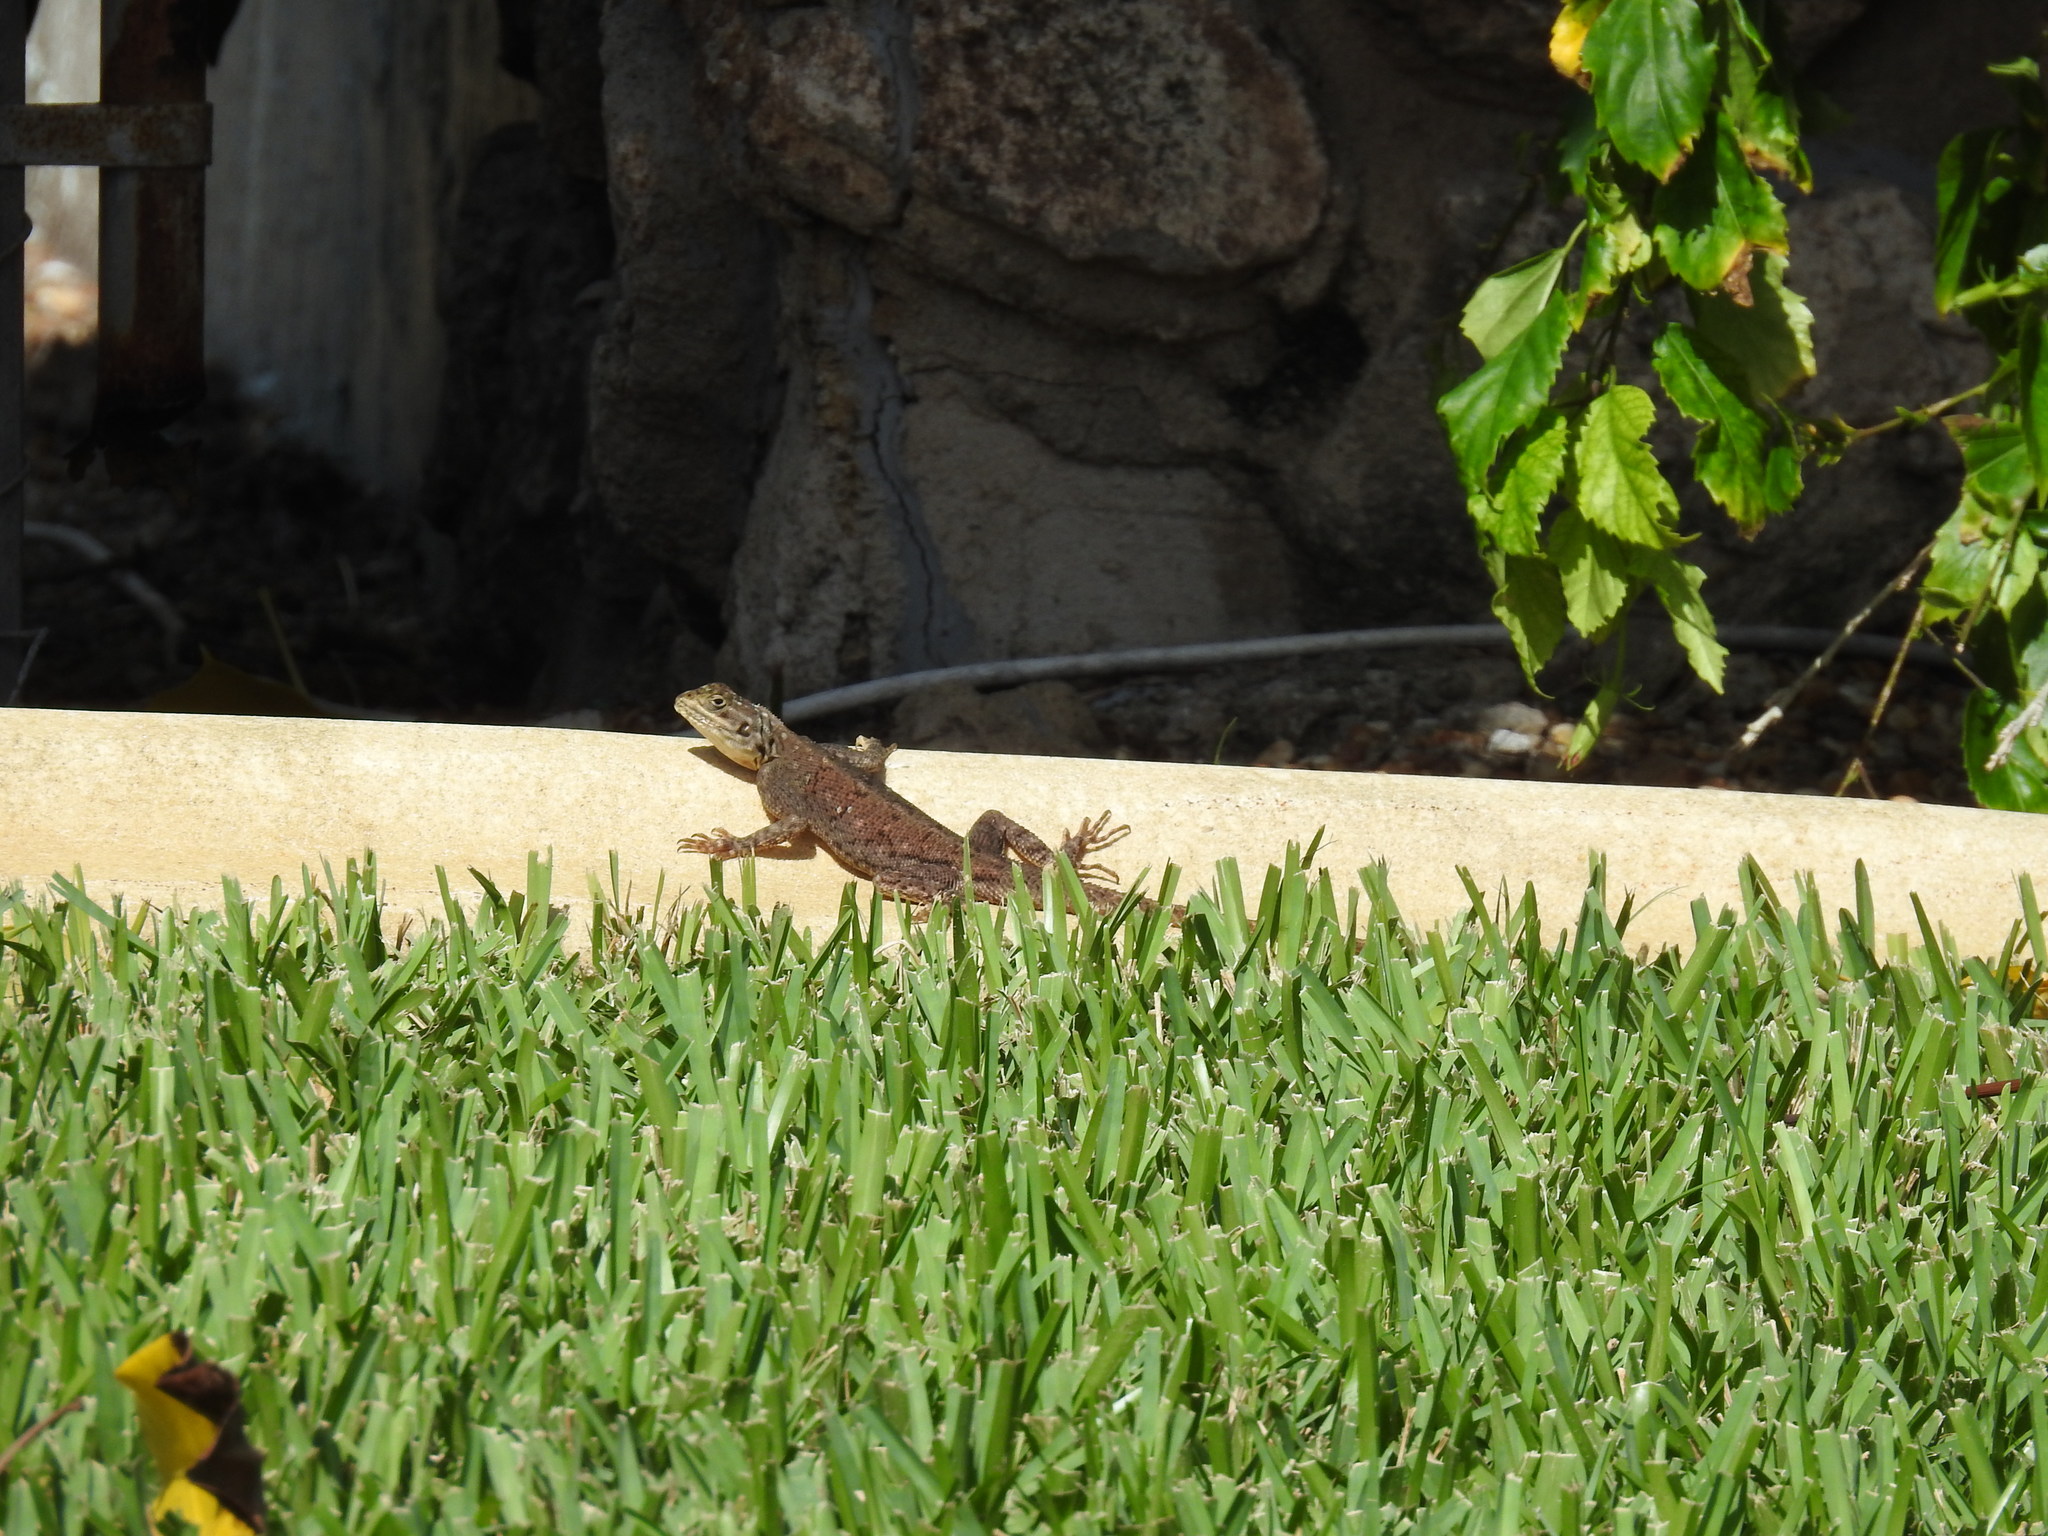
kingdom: Animalia
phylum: Chordata
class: Squamata
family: Agamidae
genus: Agama
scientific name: Agama picticauda
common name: Red-headed agama
